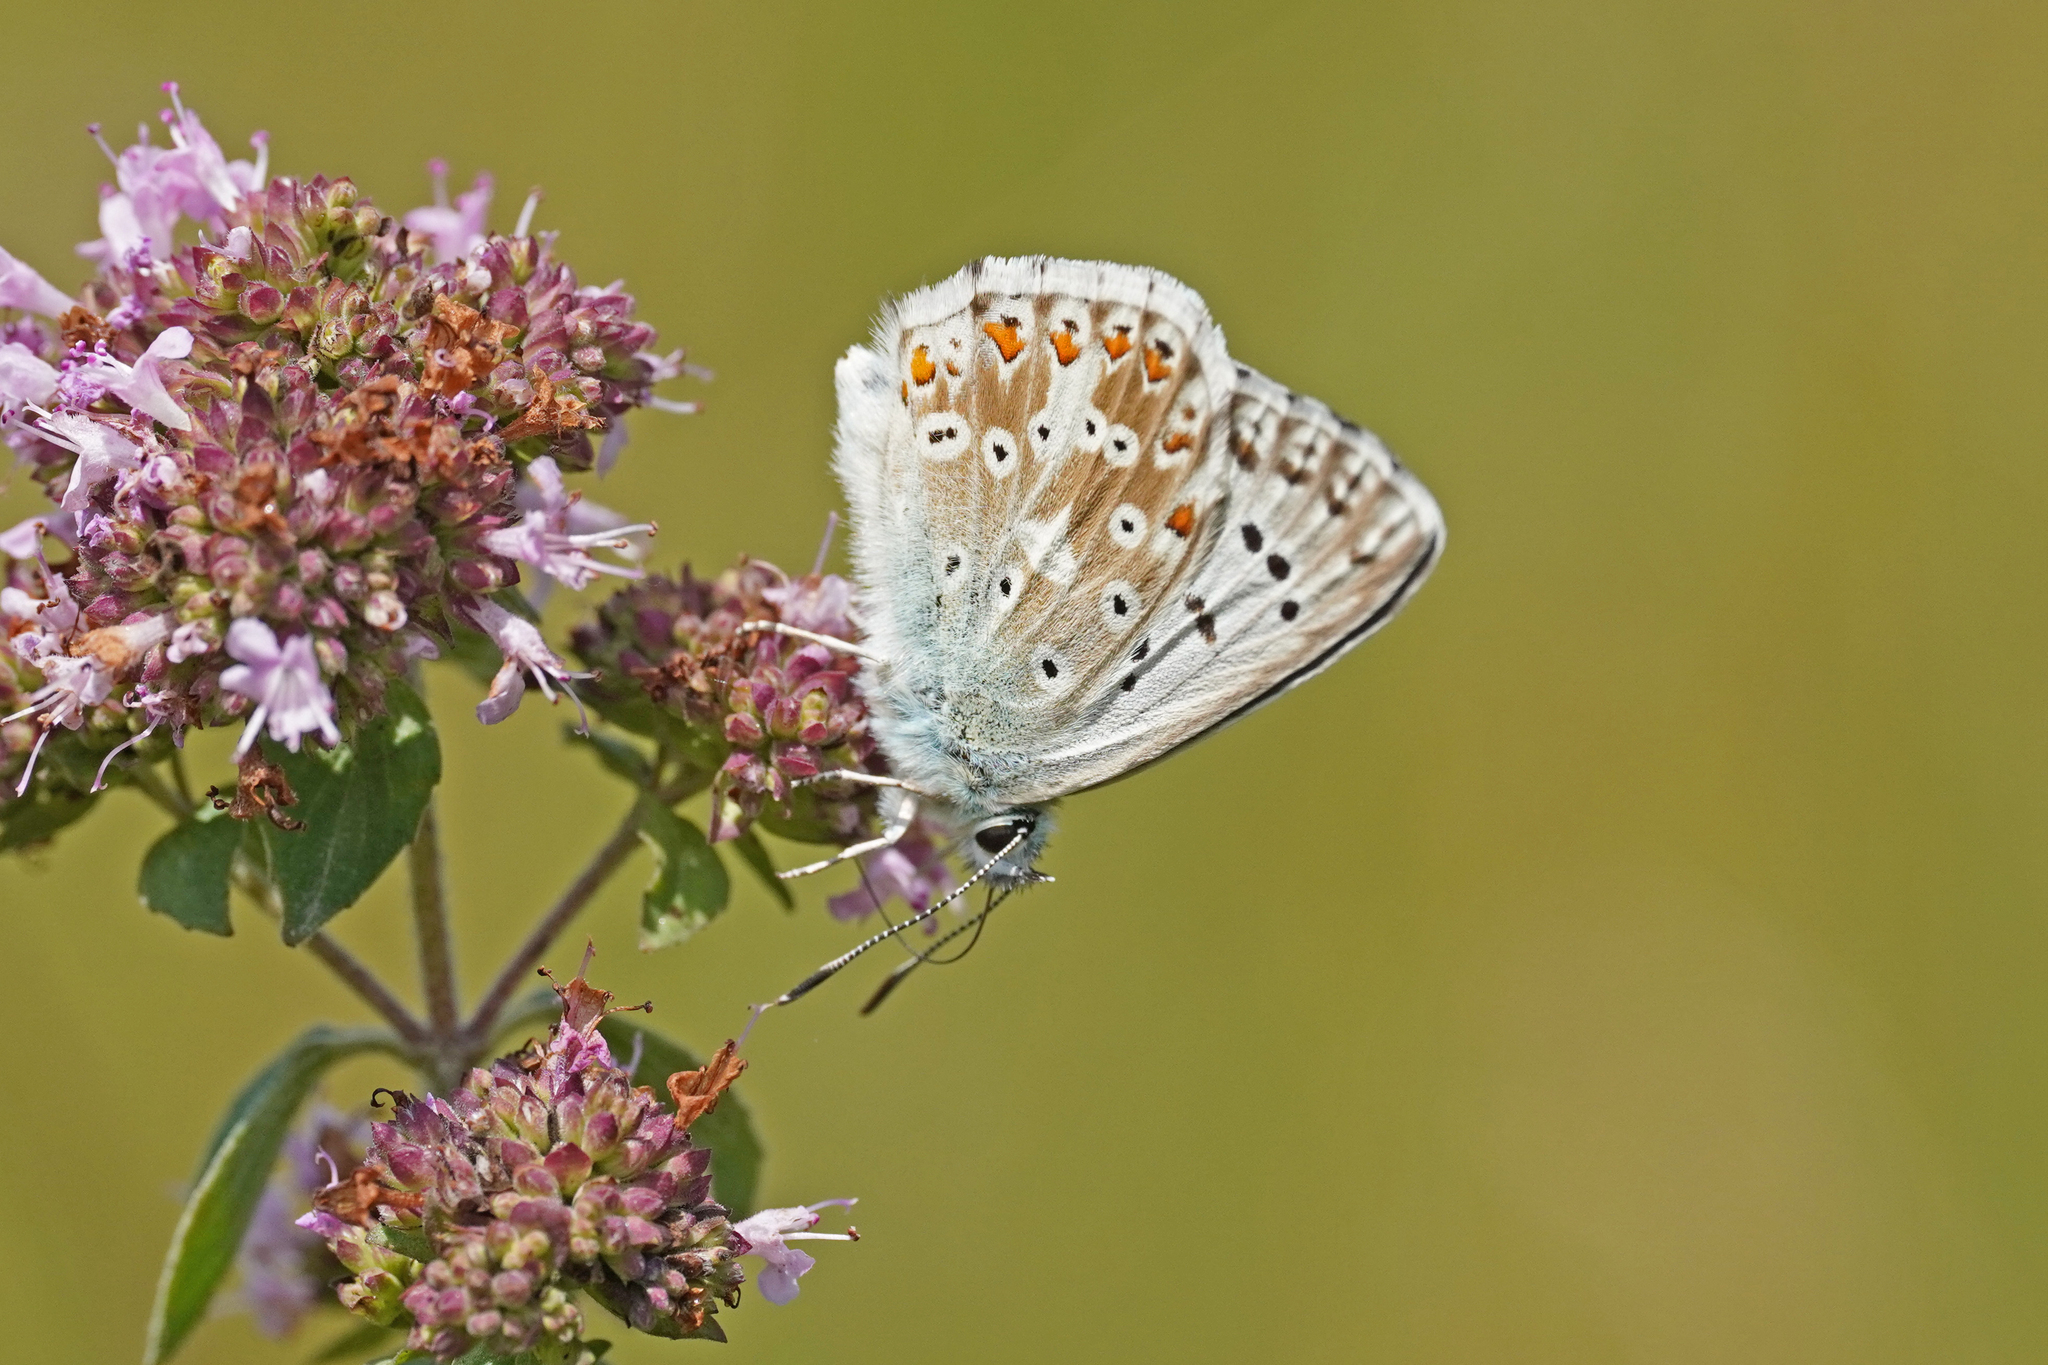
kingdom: Animalia
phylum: Arthropoda
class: Insecta
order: Lepidoptera
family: Lycaenidae
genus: Lysandra
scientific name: Lysandra coridon
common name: Chalkhill blue
